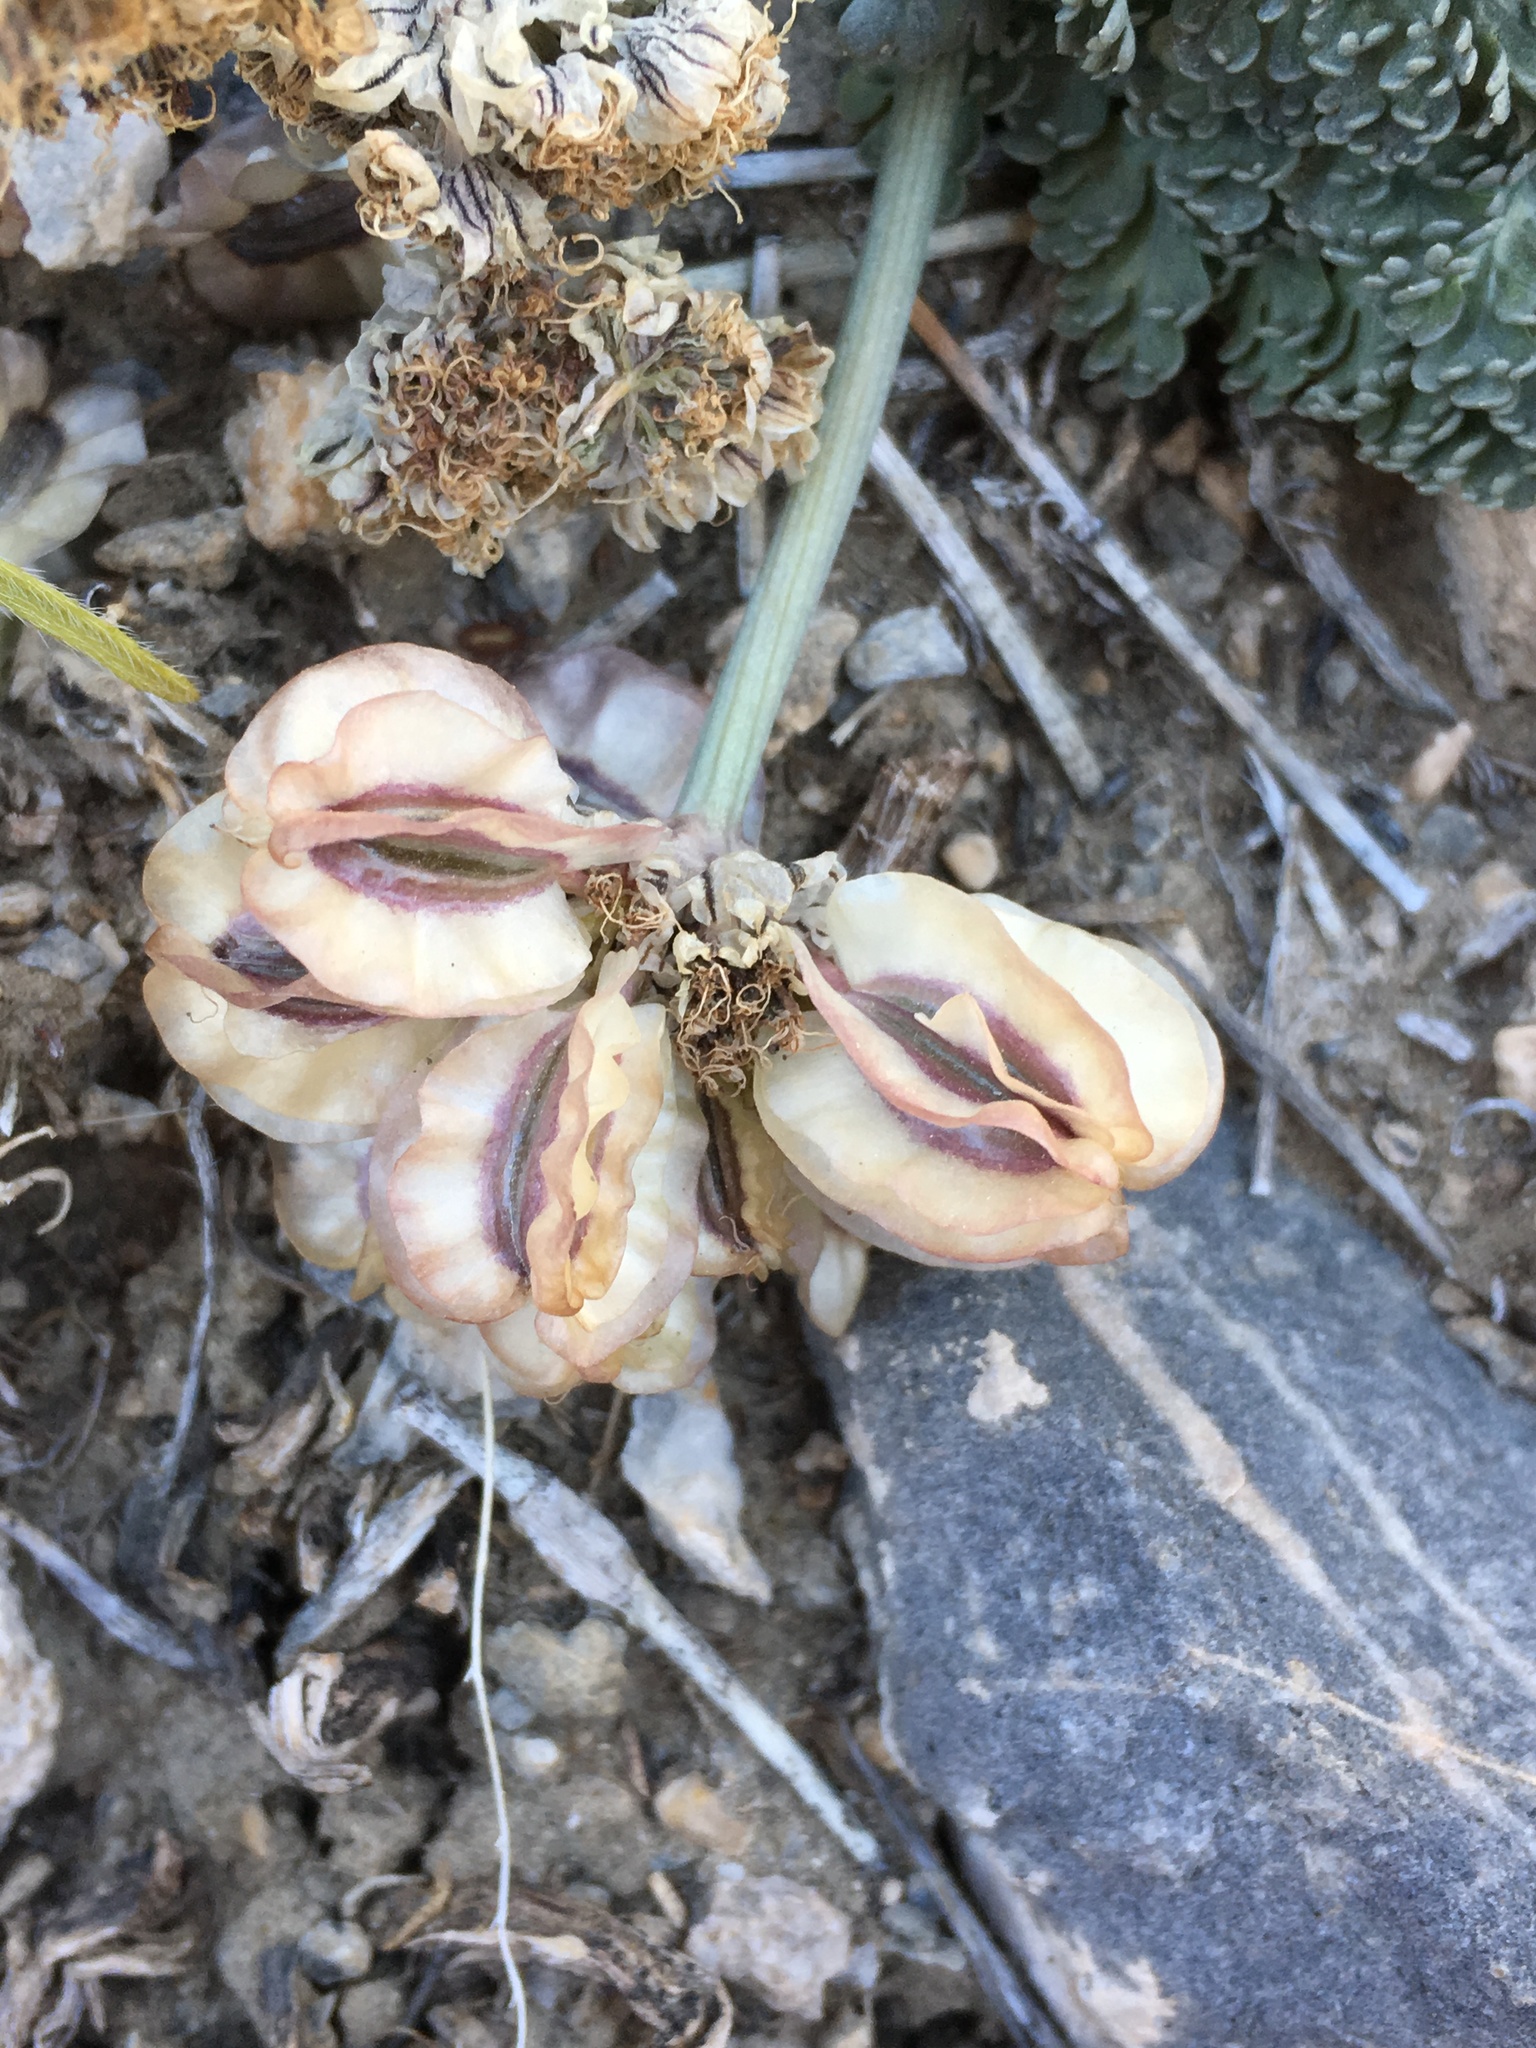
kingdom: Plantae
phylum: Tracheophyta
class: Magnoliopsida
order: Apiales
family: Apiaceae
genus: Vesper
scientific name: Vesper purpurascens
